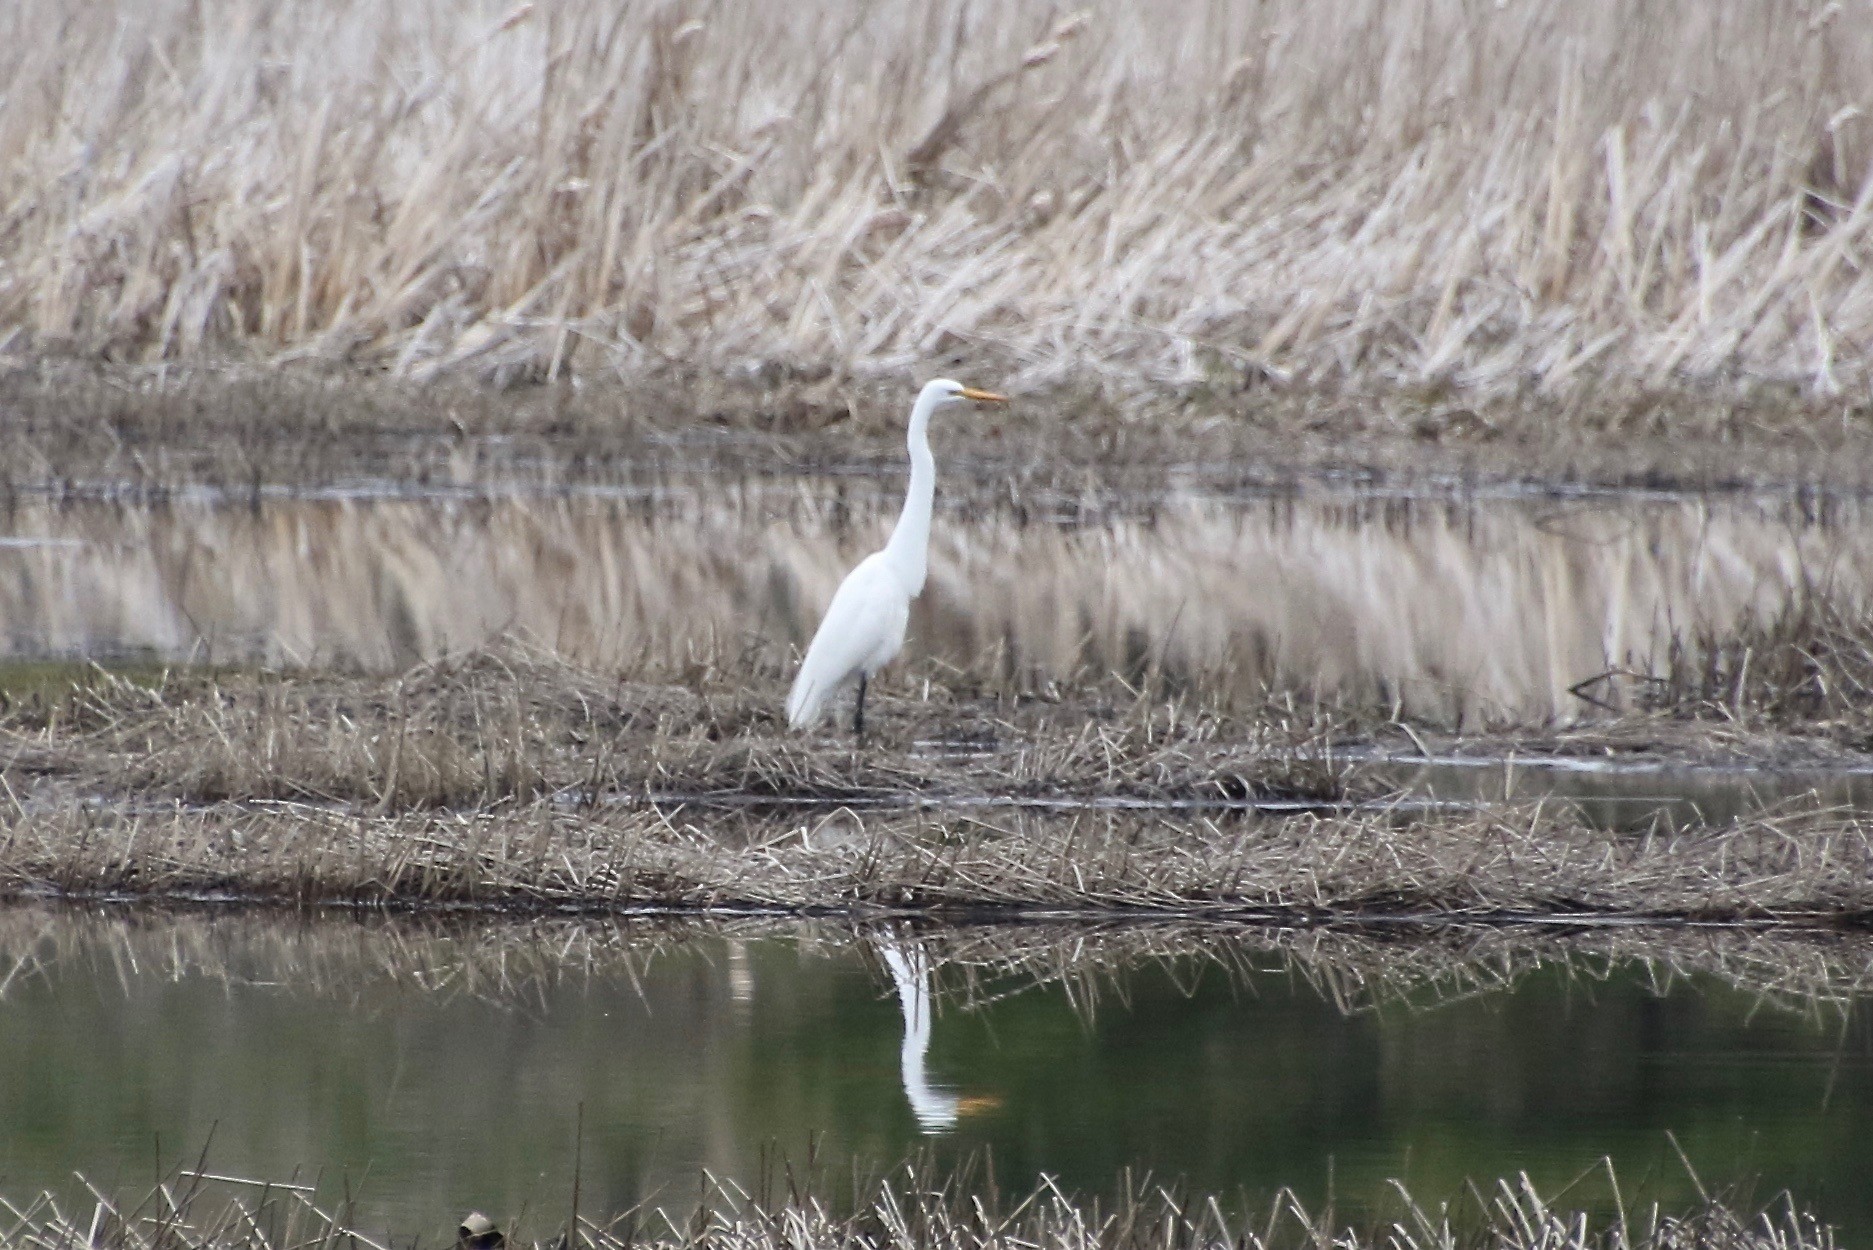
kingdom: Animalia
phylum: Chordata
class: Aves
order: Pelecaniformes
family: Ardeidae
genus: Ardea
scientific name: Ardea alba
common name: Great egret
